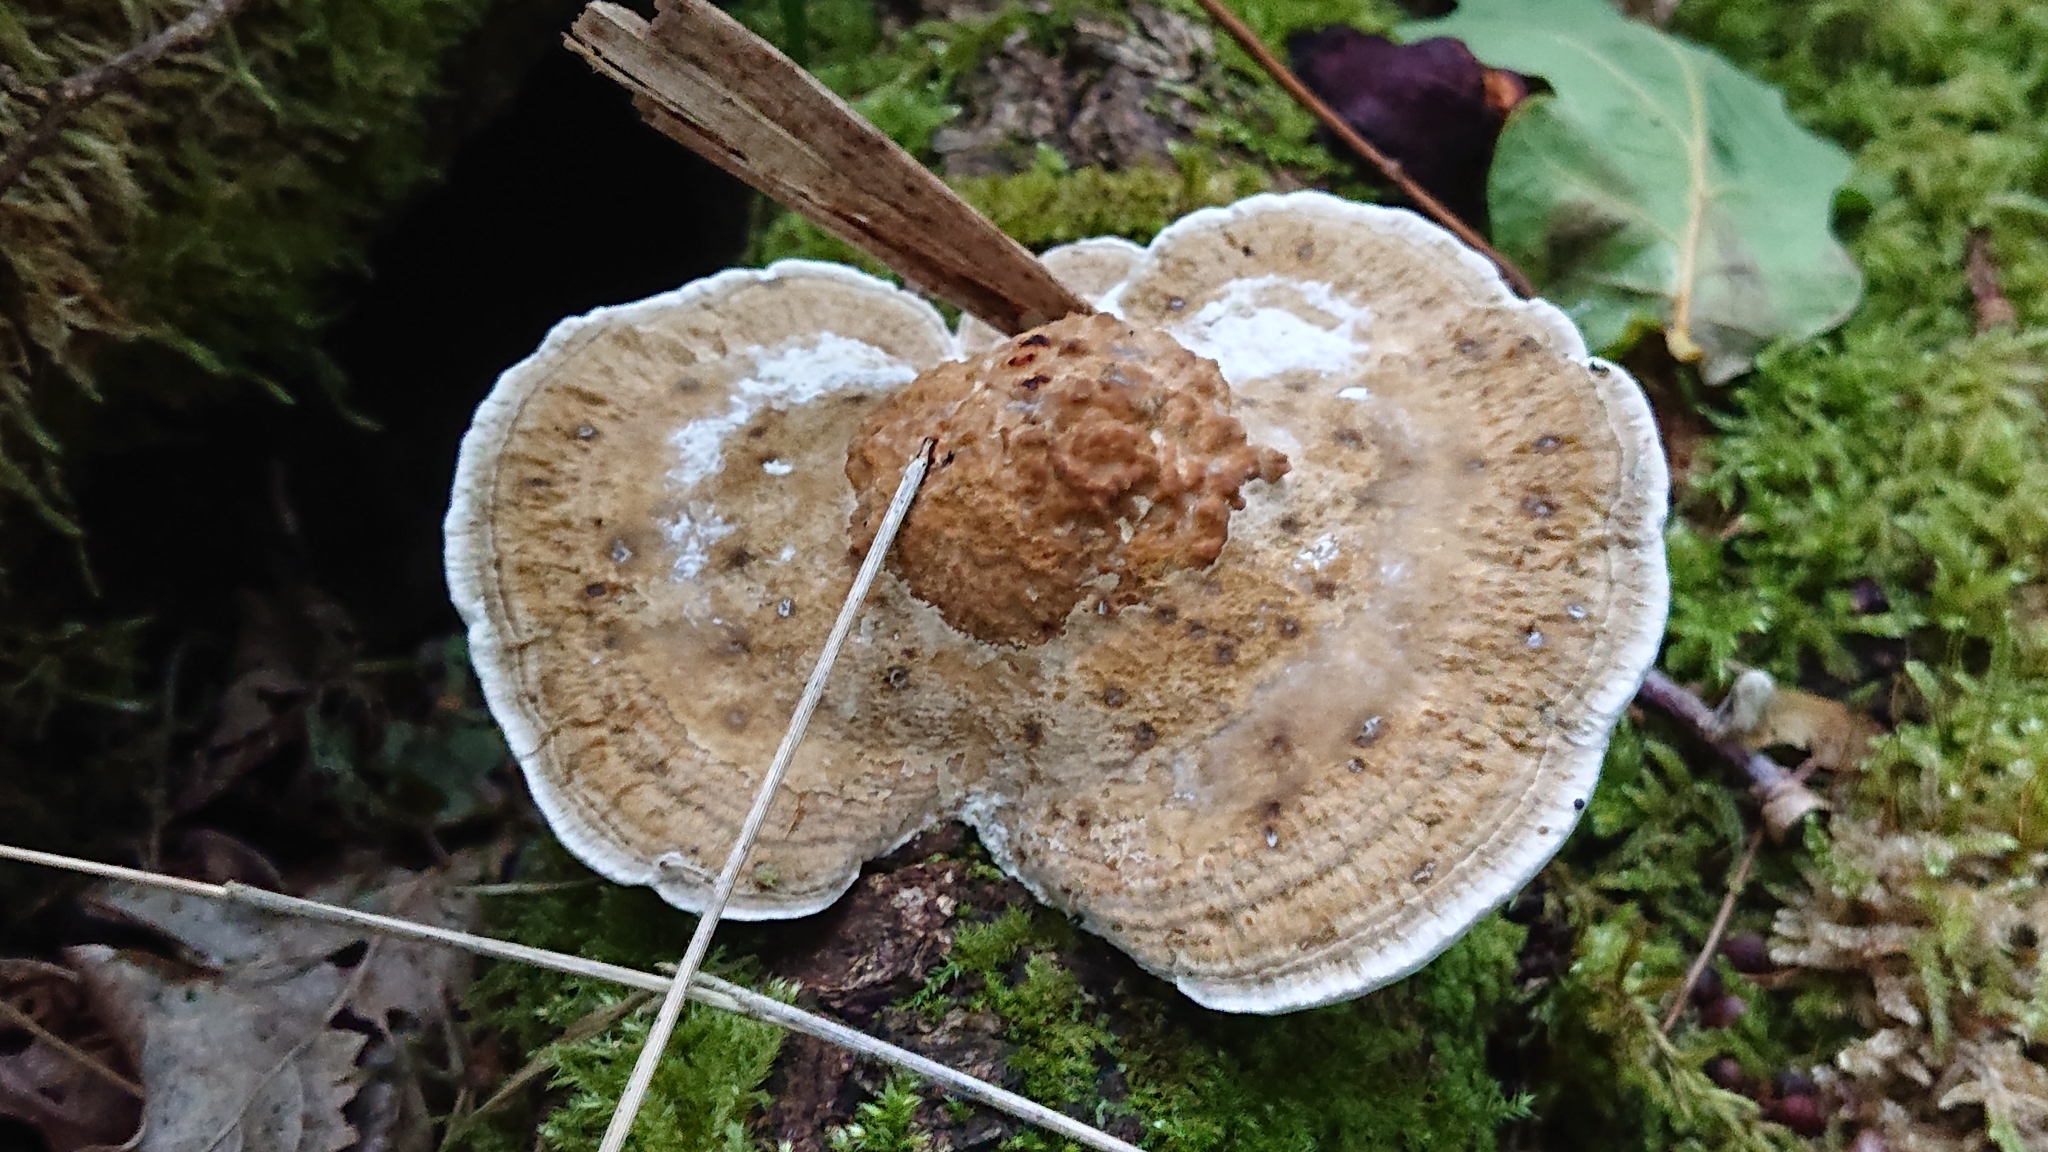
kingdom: Fungi
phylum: Basidiomycota
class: Agaricomycetes
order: Polyporales
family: Polyporaceae
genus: Daedaleopsis
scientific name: Daedaleopsis confragosa
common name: Blushing bracket
